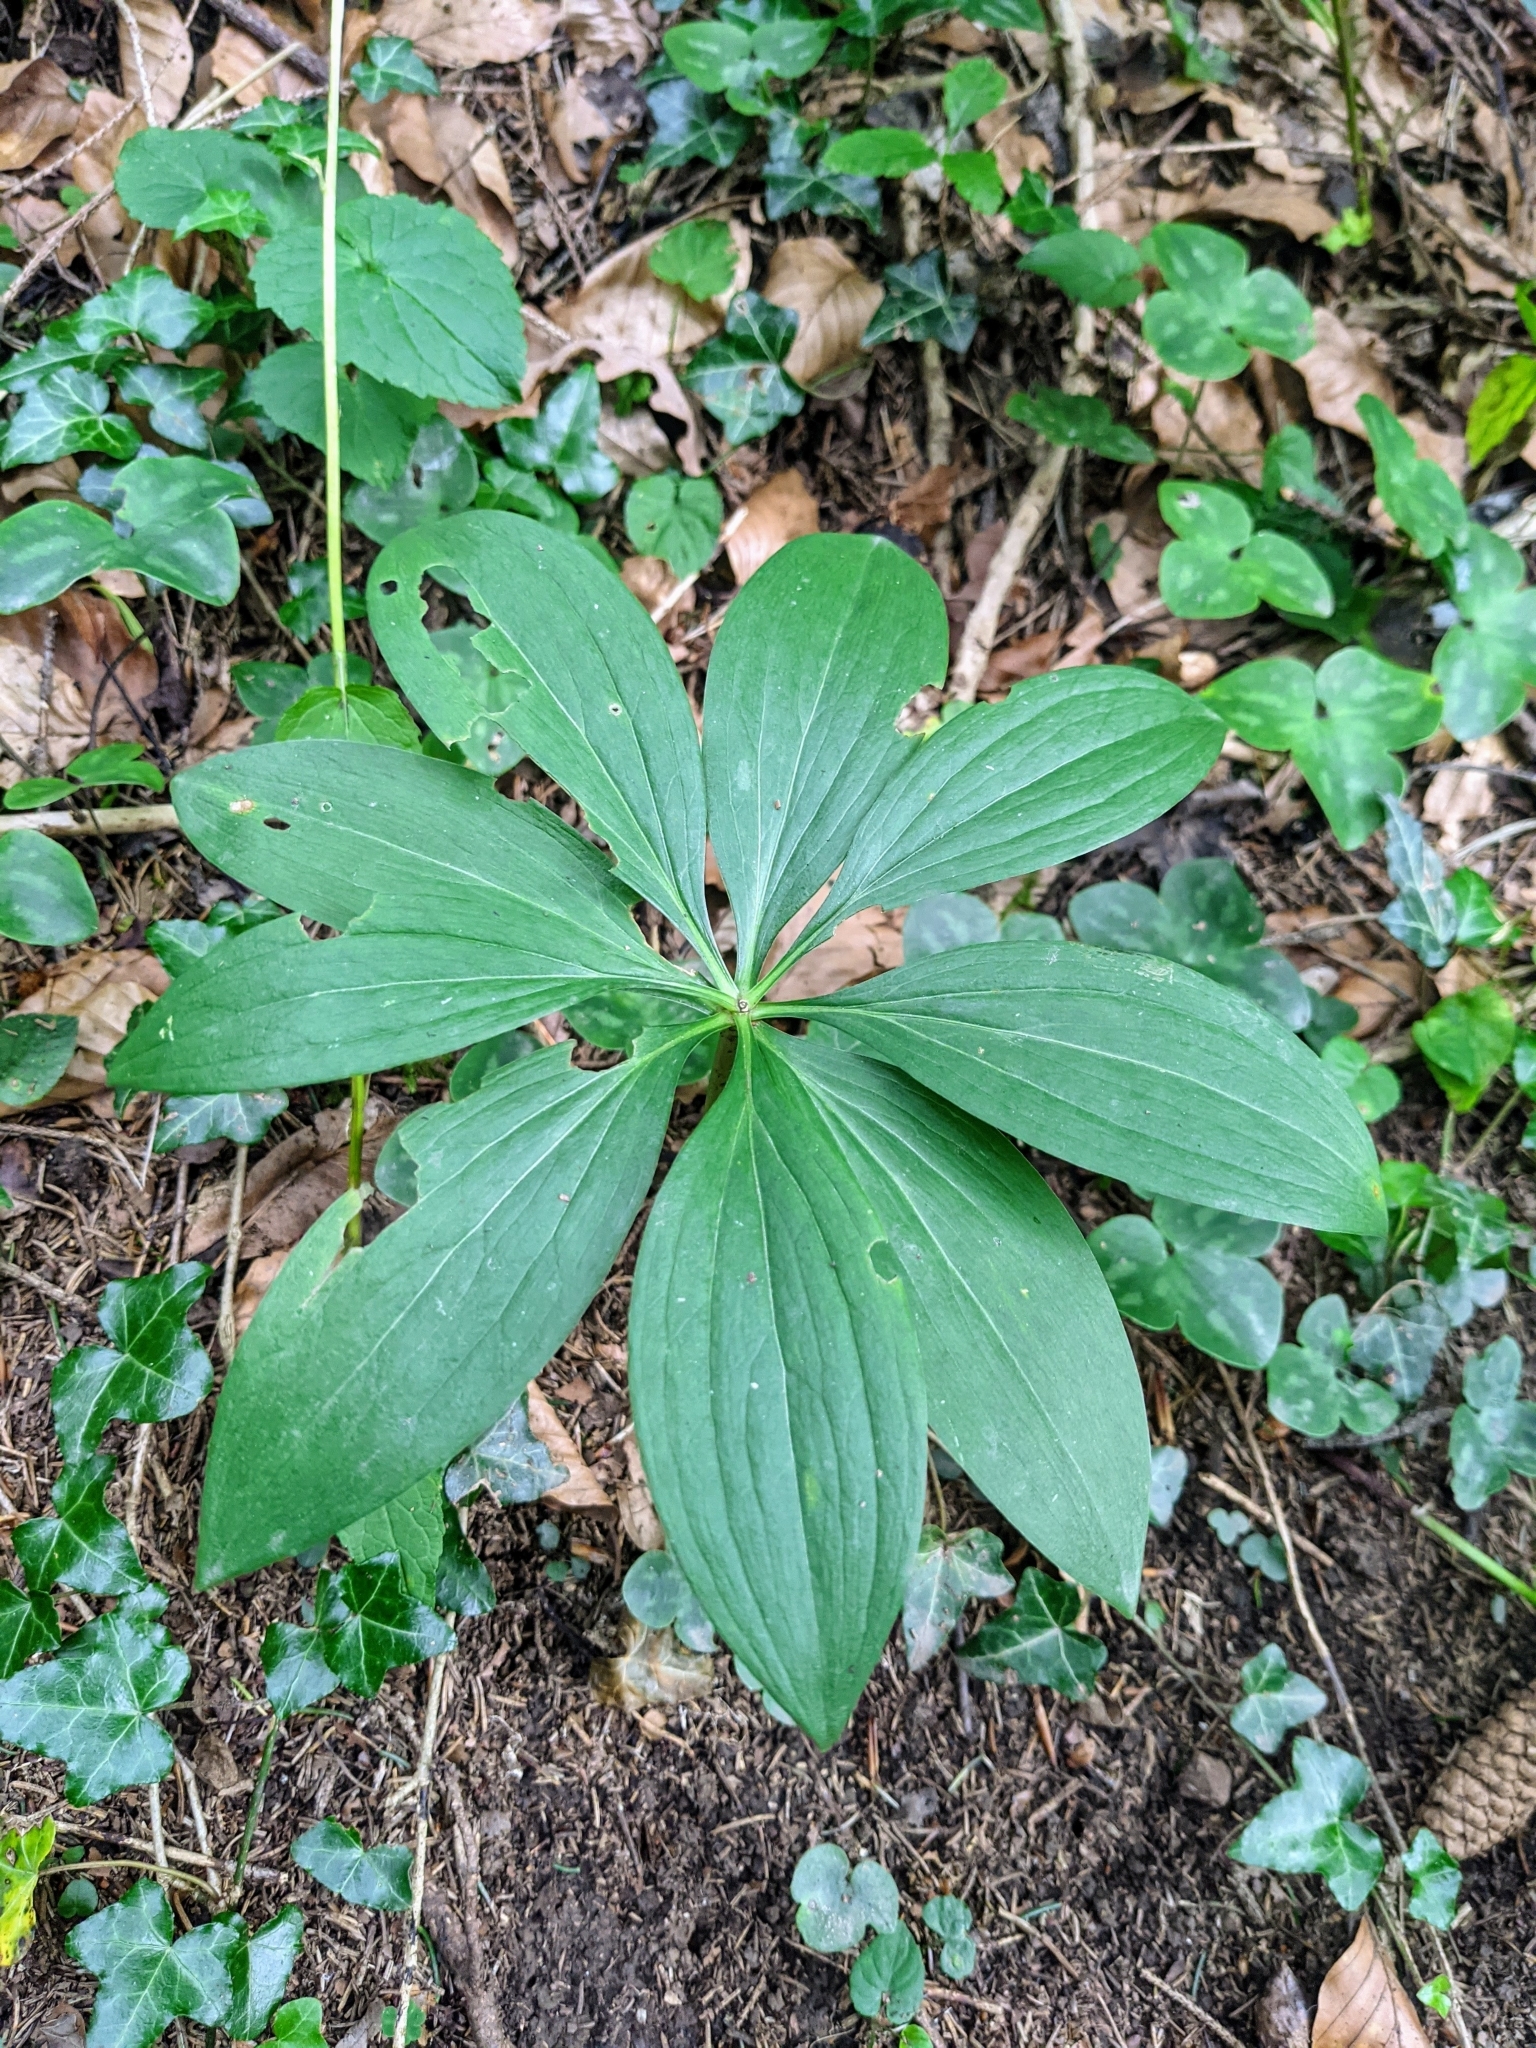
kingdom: Plantae
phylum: Tracheophyta
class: Liliopsida
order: Liliales
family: Liliaceae
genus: Lilium
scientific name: Lilium martagon
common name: Martagon lily
